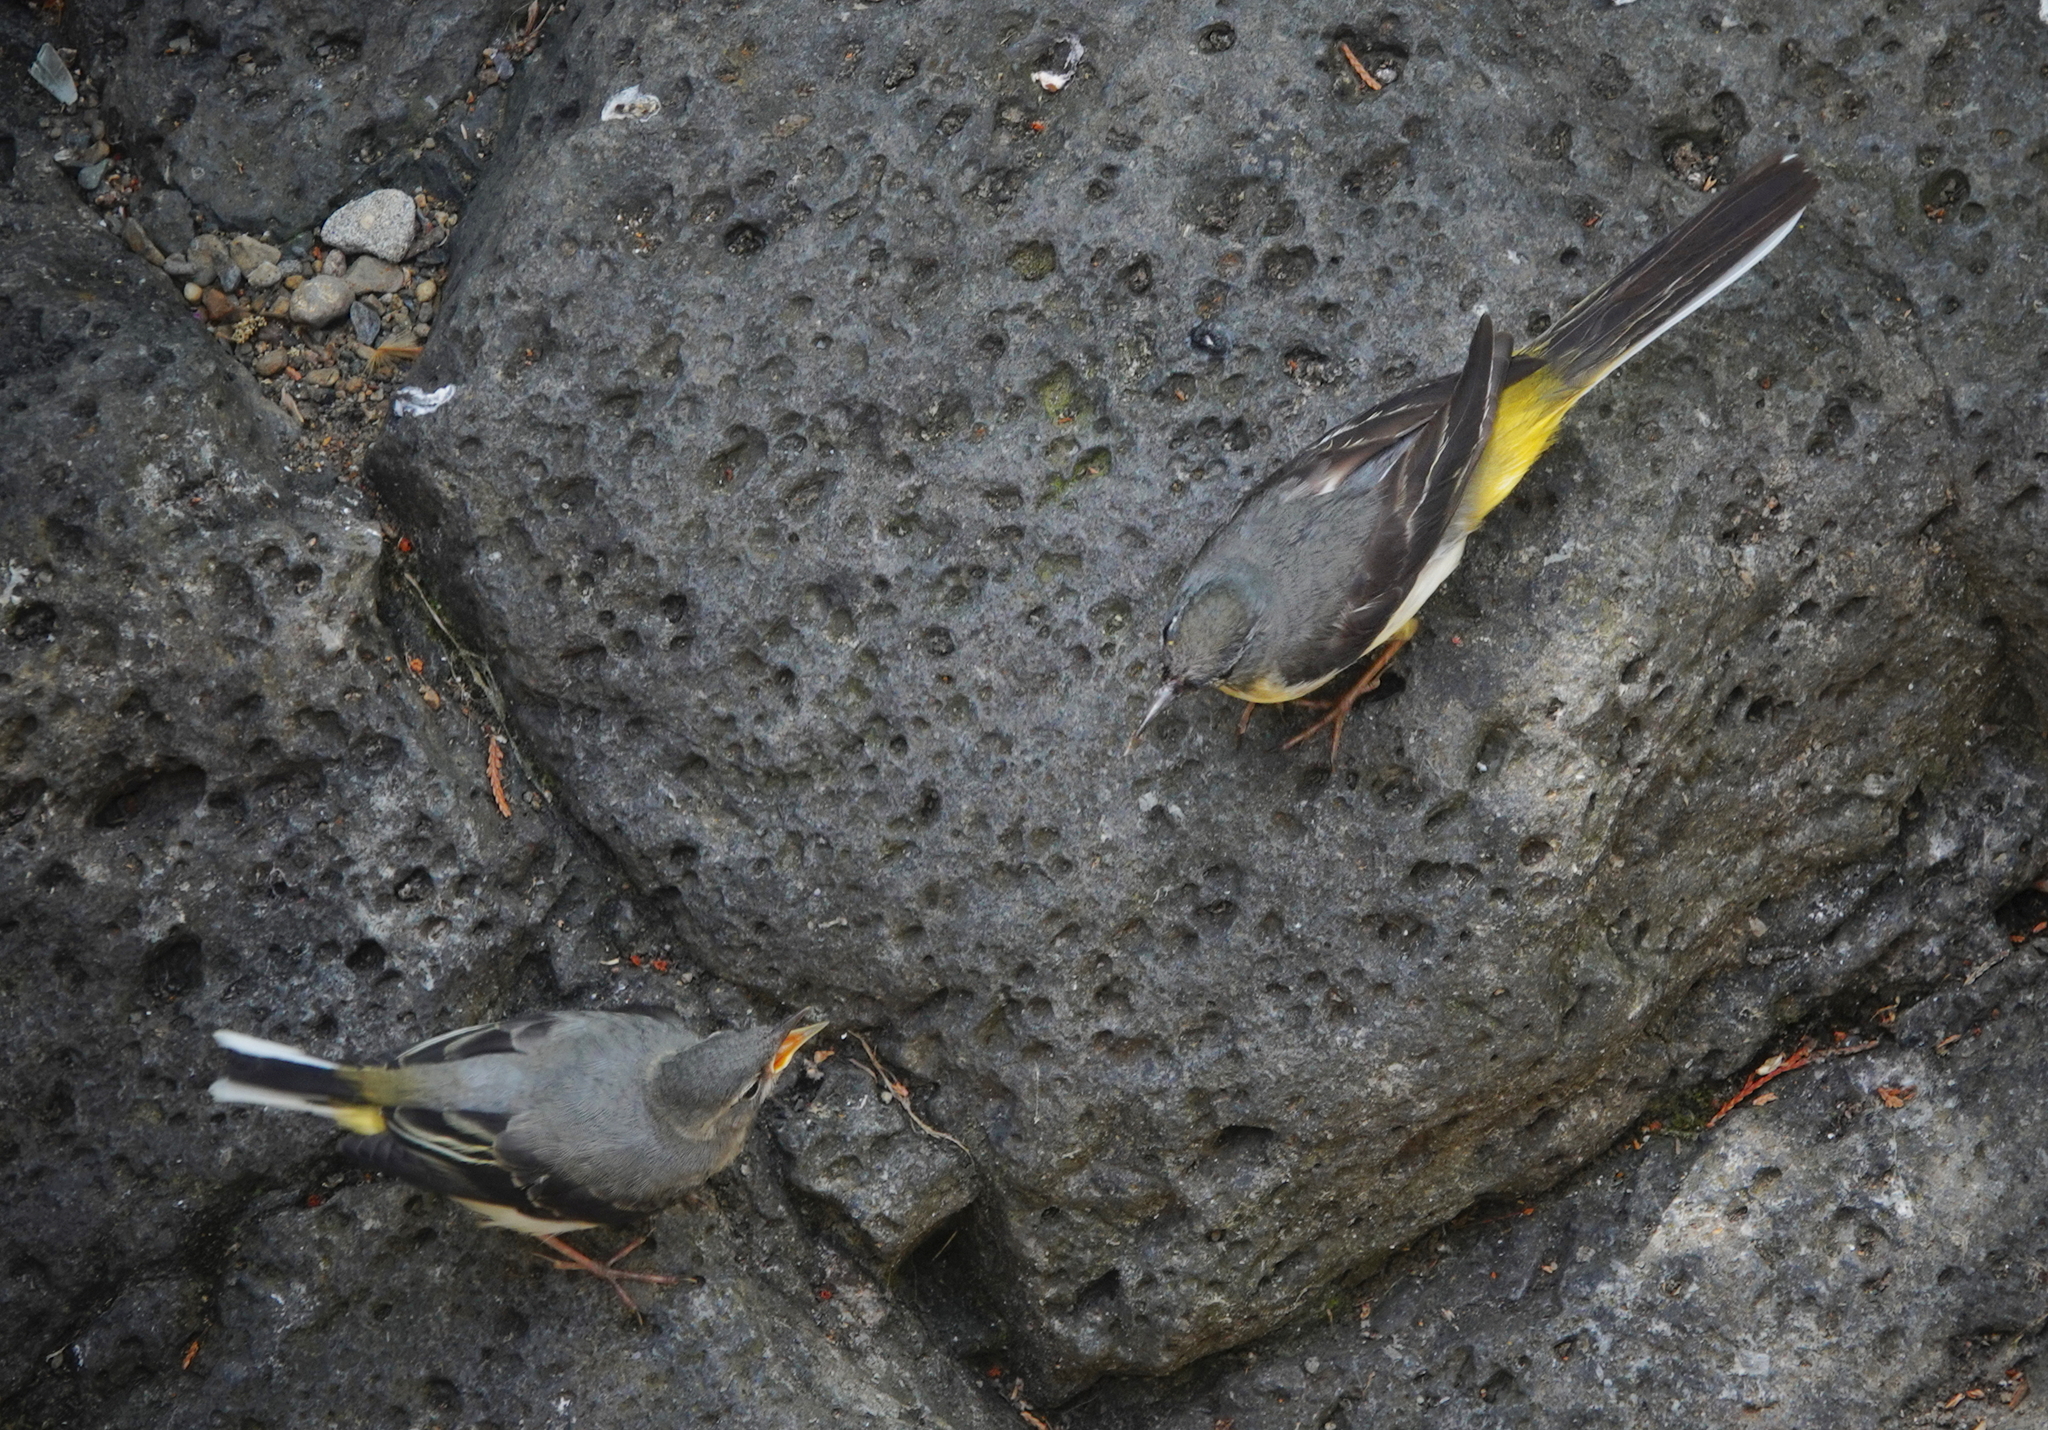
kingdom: Animalia
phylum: Chordata
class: Aves
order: Passeriformes
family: Motacillidae
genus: Motacilla
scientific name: Motacilla cinerea
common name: Grey wagtail
